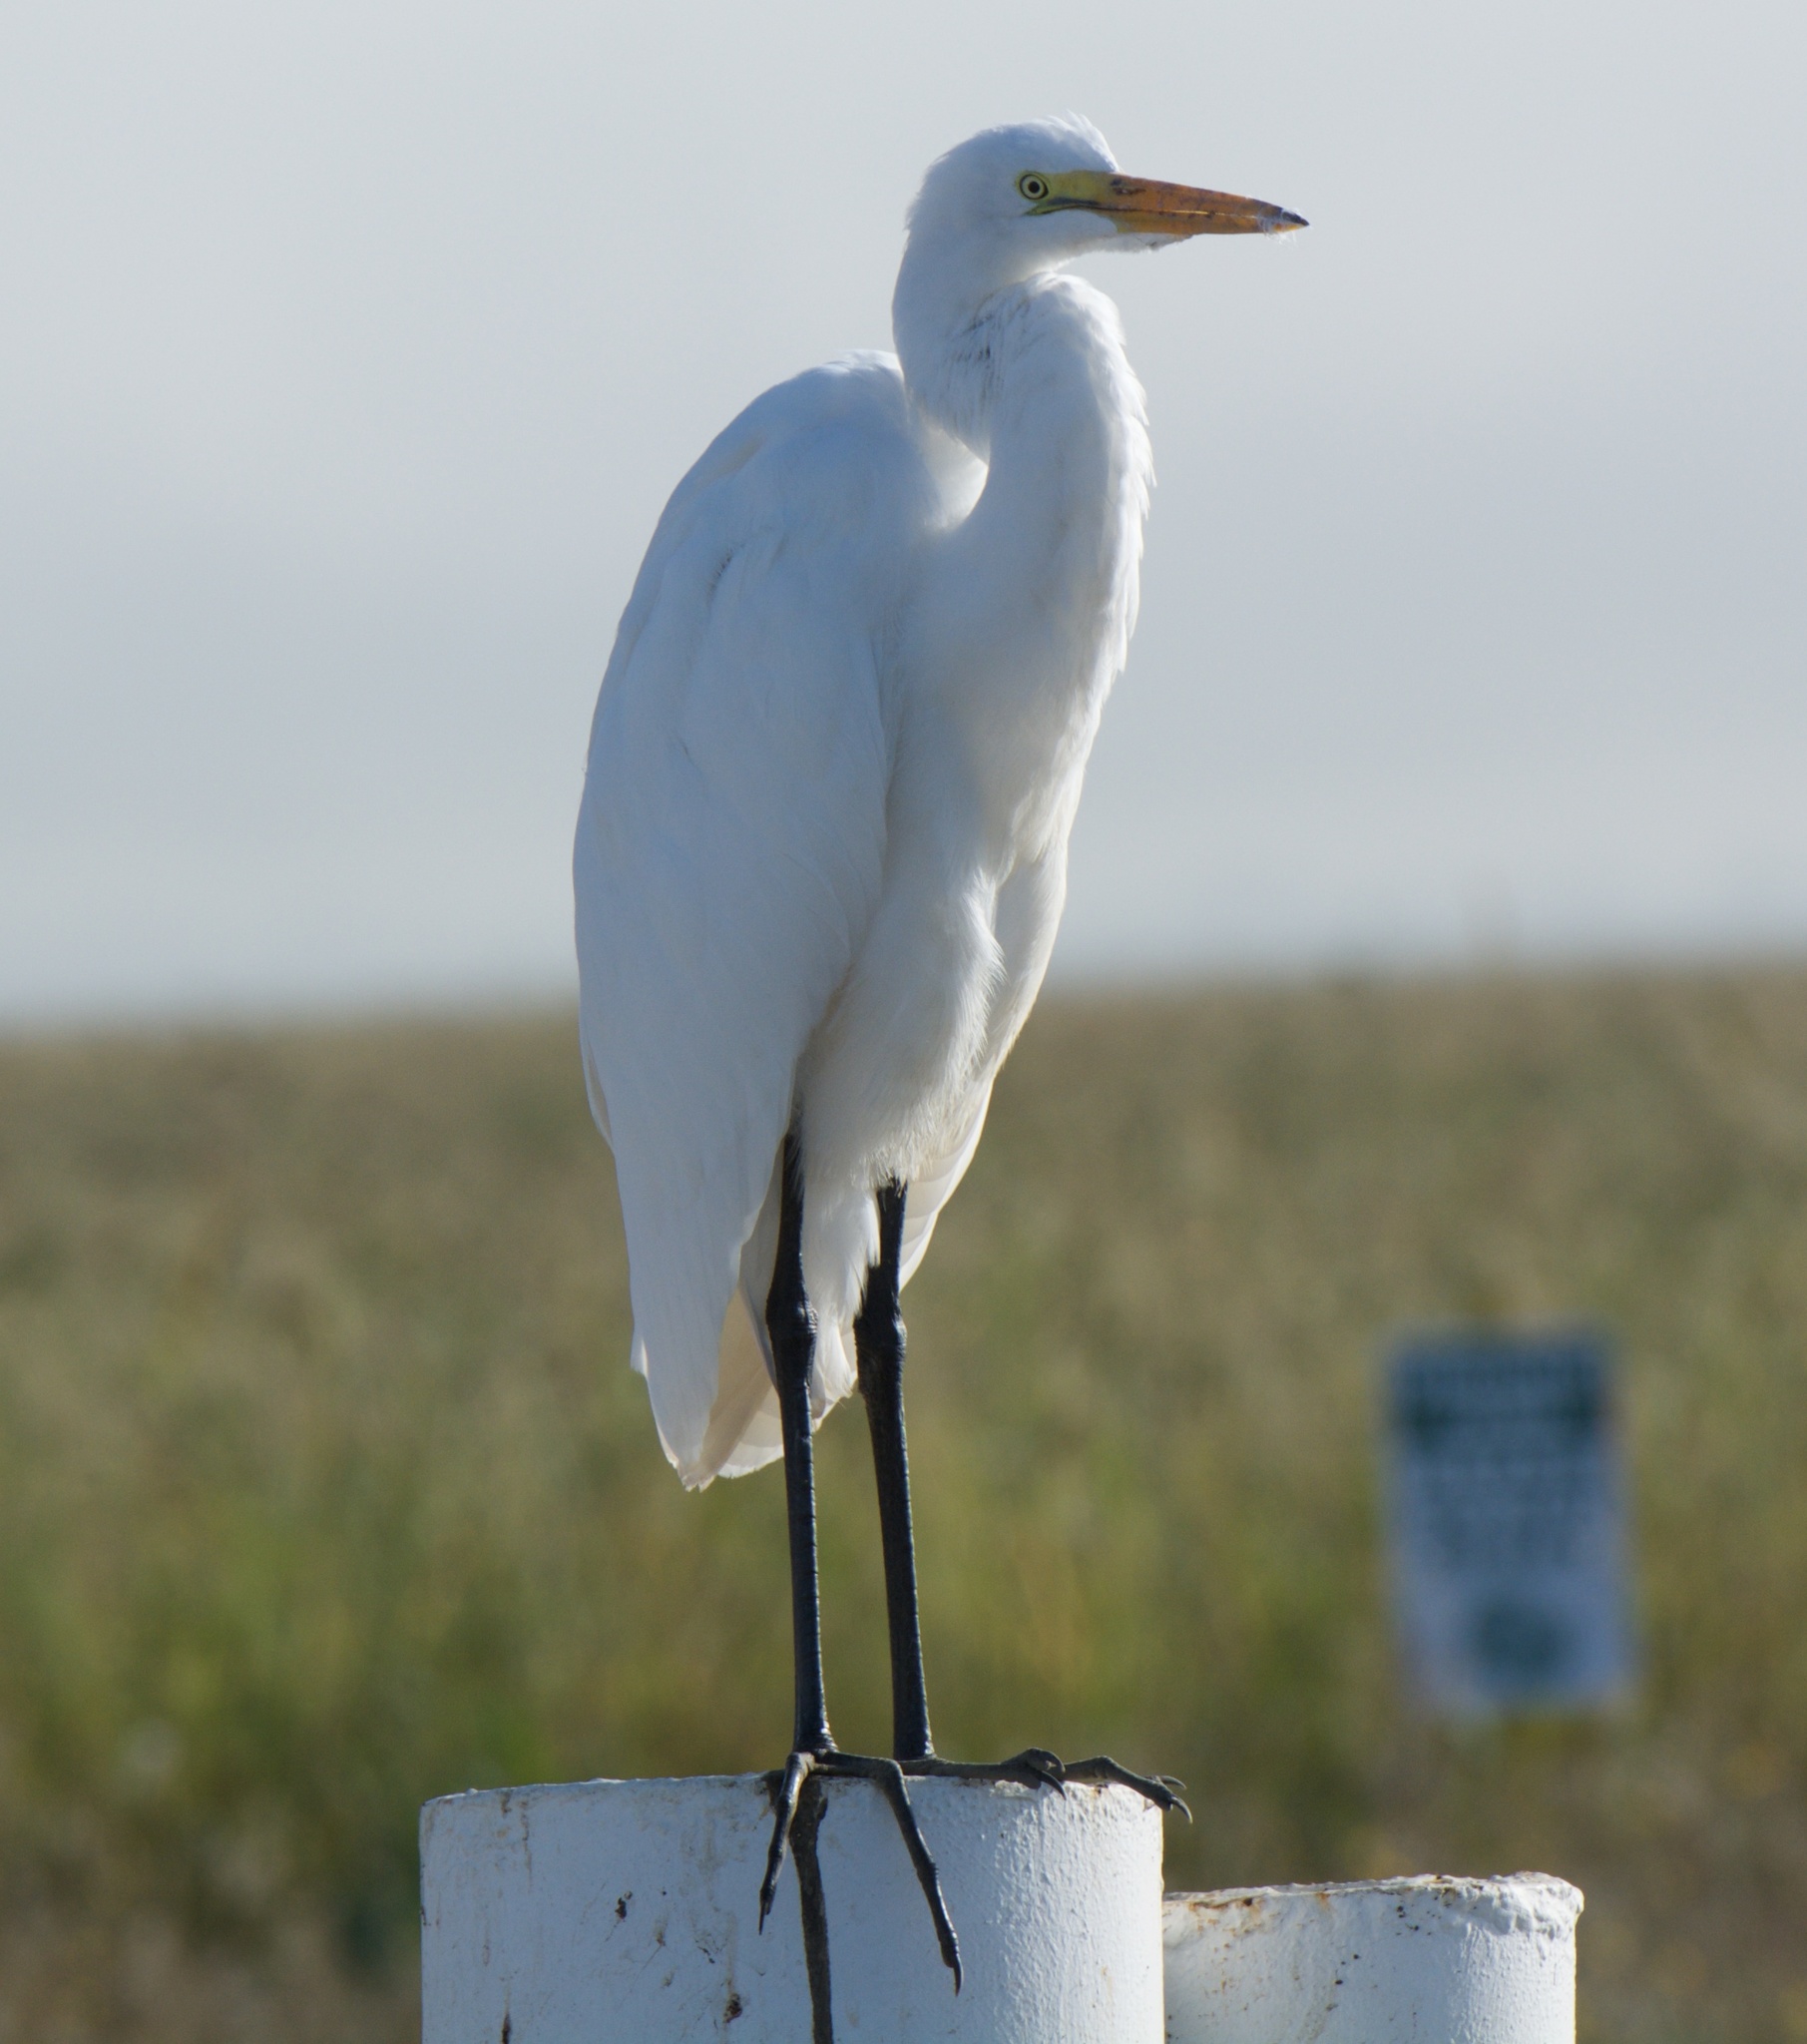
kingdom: Animalia
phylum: Chordata
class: Aves
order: Pelecaniformes
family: Ardeidae
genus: Ardea
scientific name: Ardea alba
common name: Great egret
